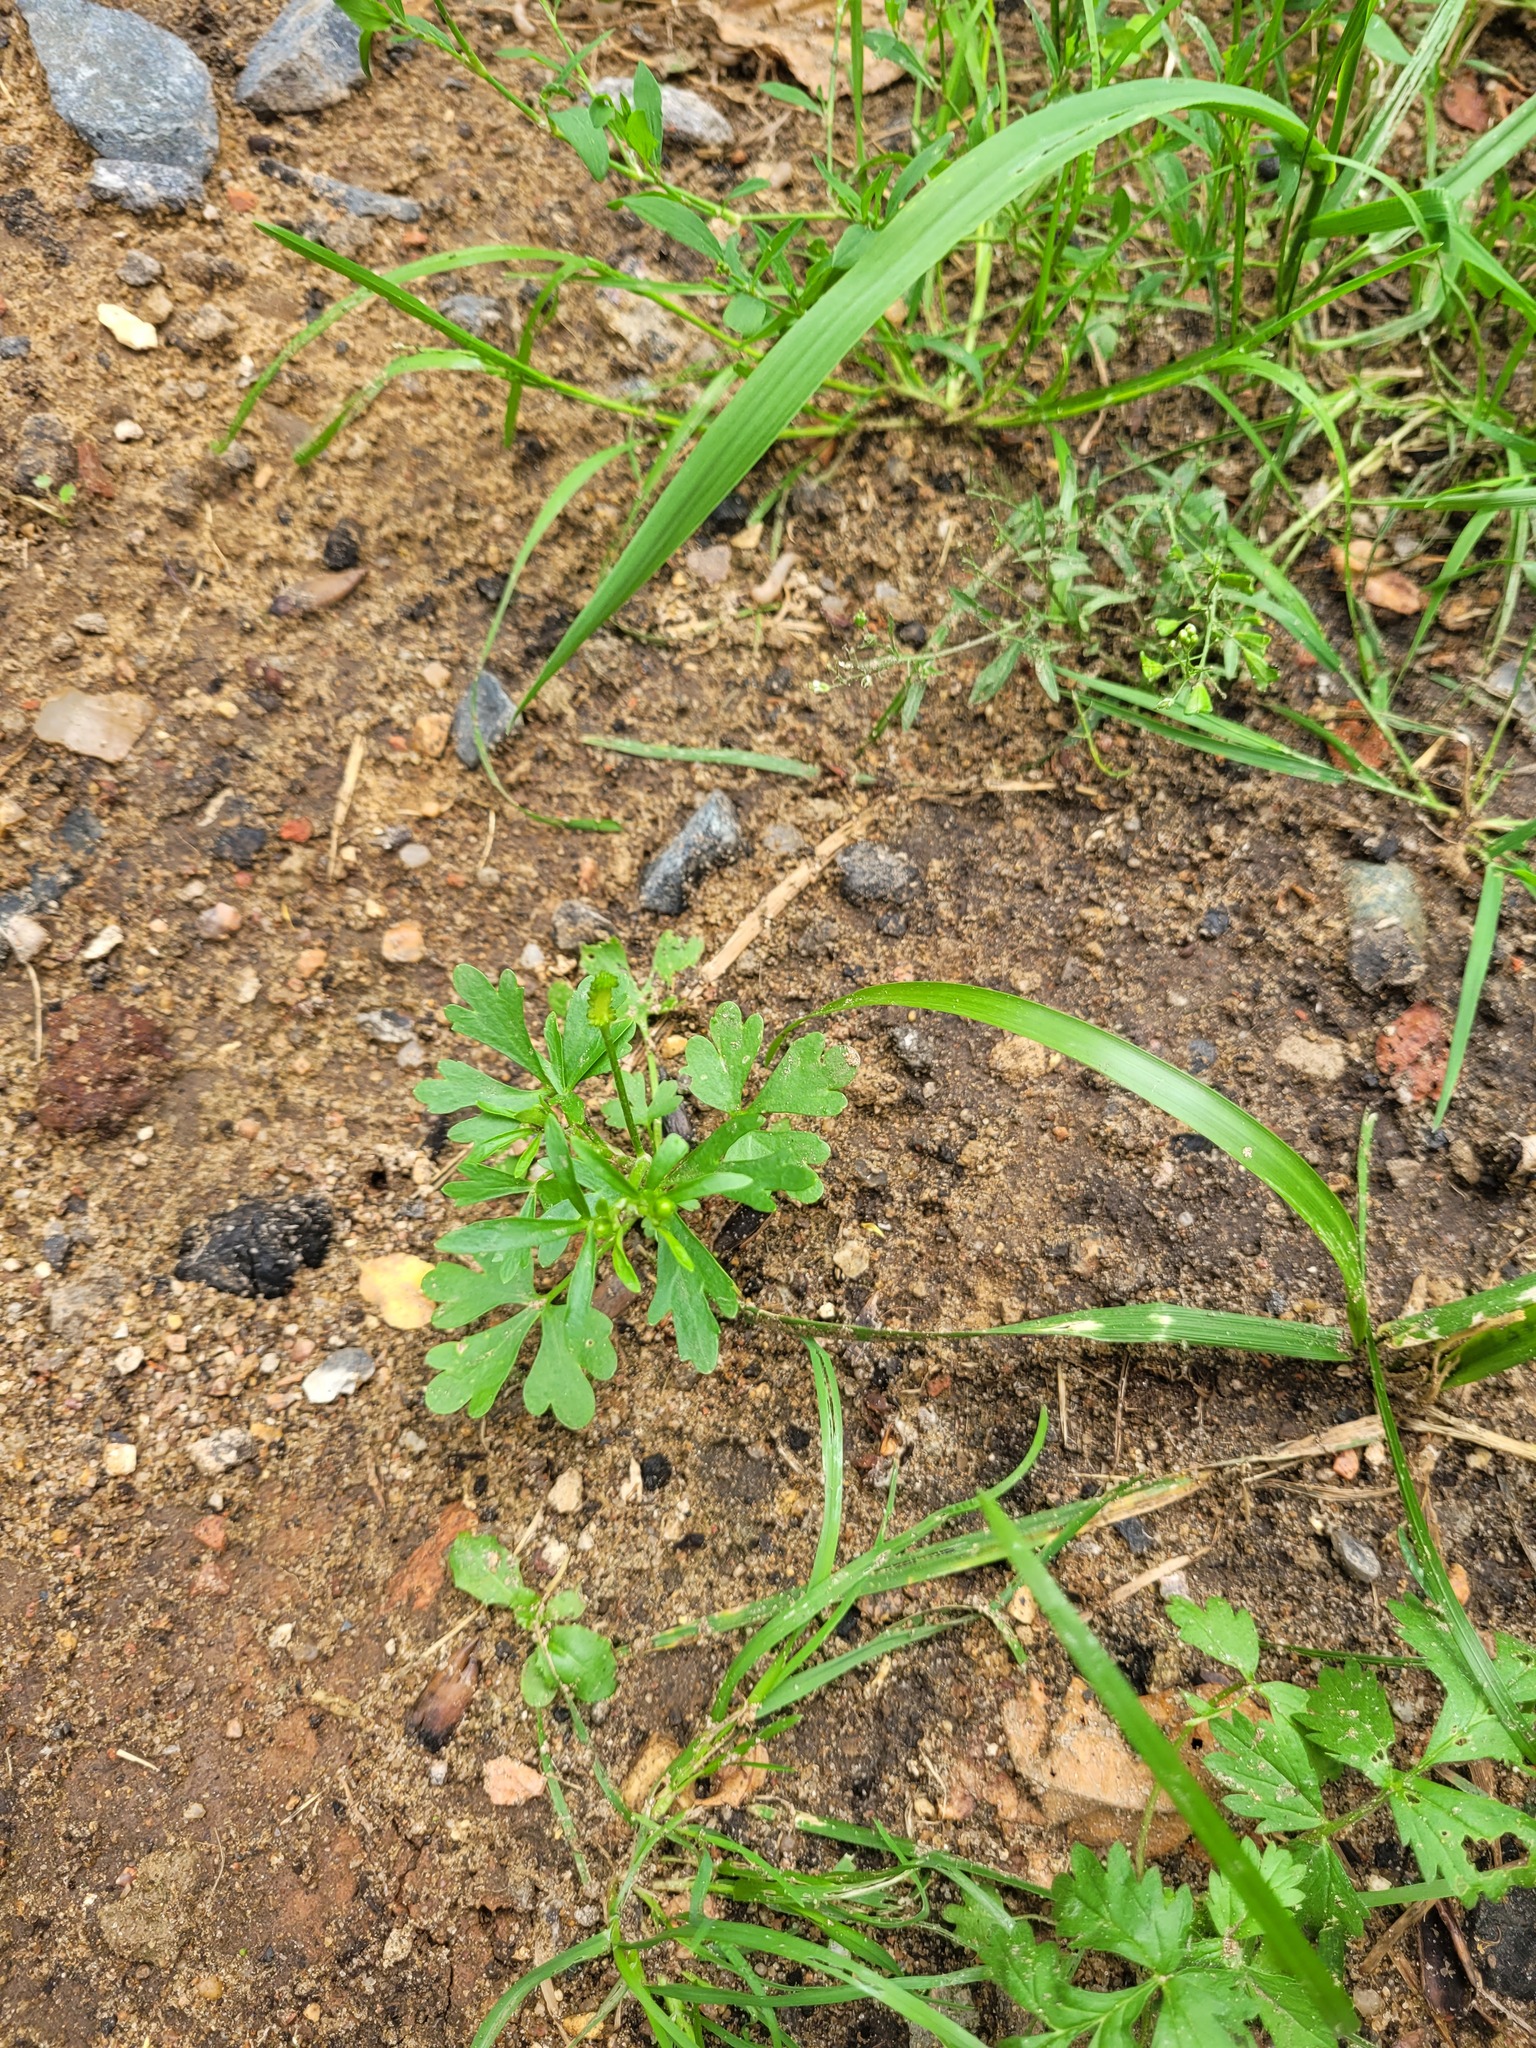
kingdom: Plantae
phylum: Tracheophyta
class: Magnoliopsida
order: Ranunculales
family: Ranunculaceae
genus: Ranunculus
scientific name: Ranunculus sceleratus
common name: Celery-leaved buttercup
